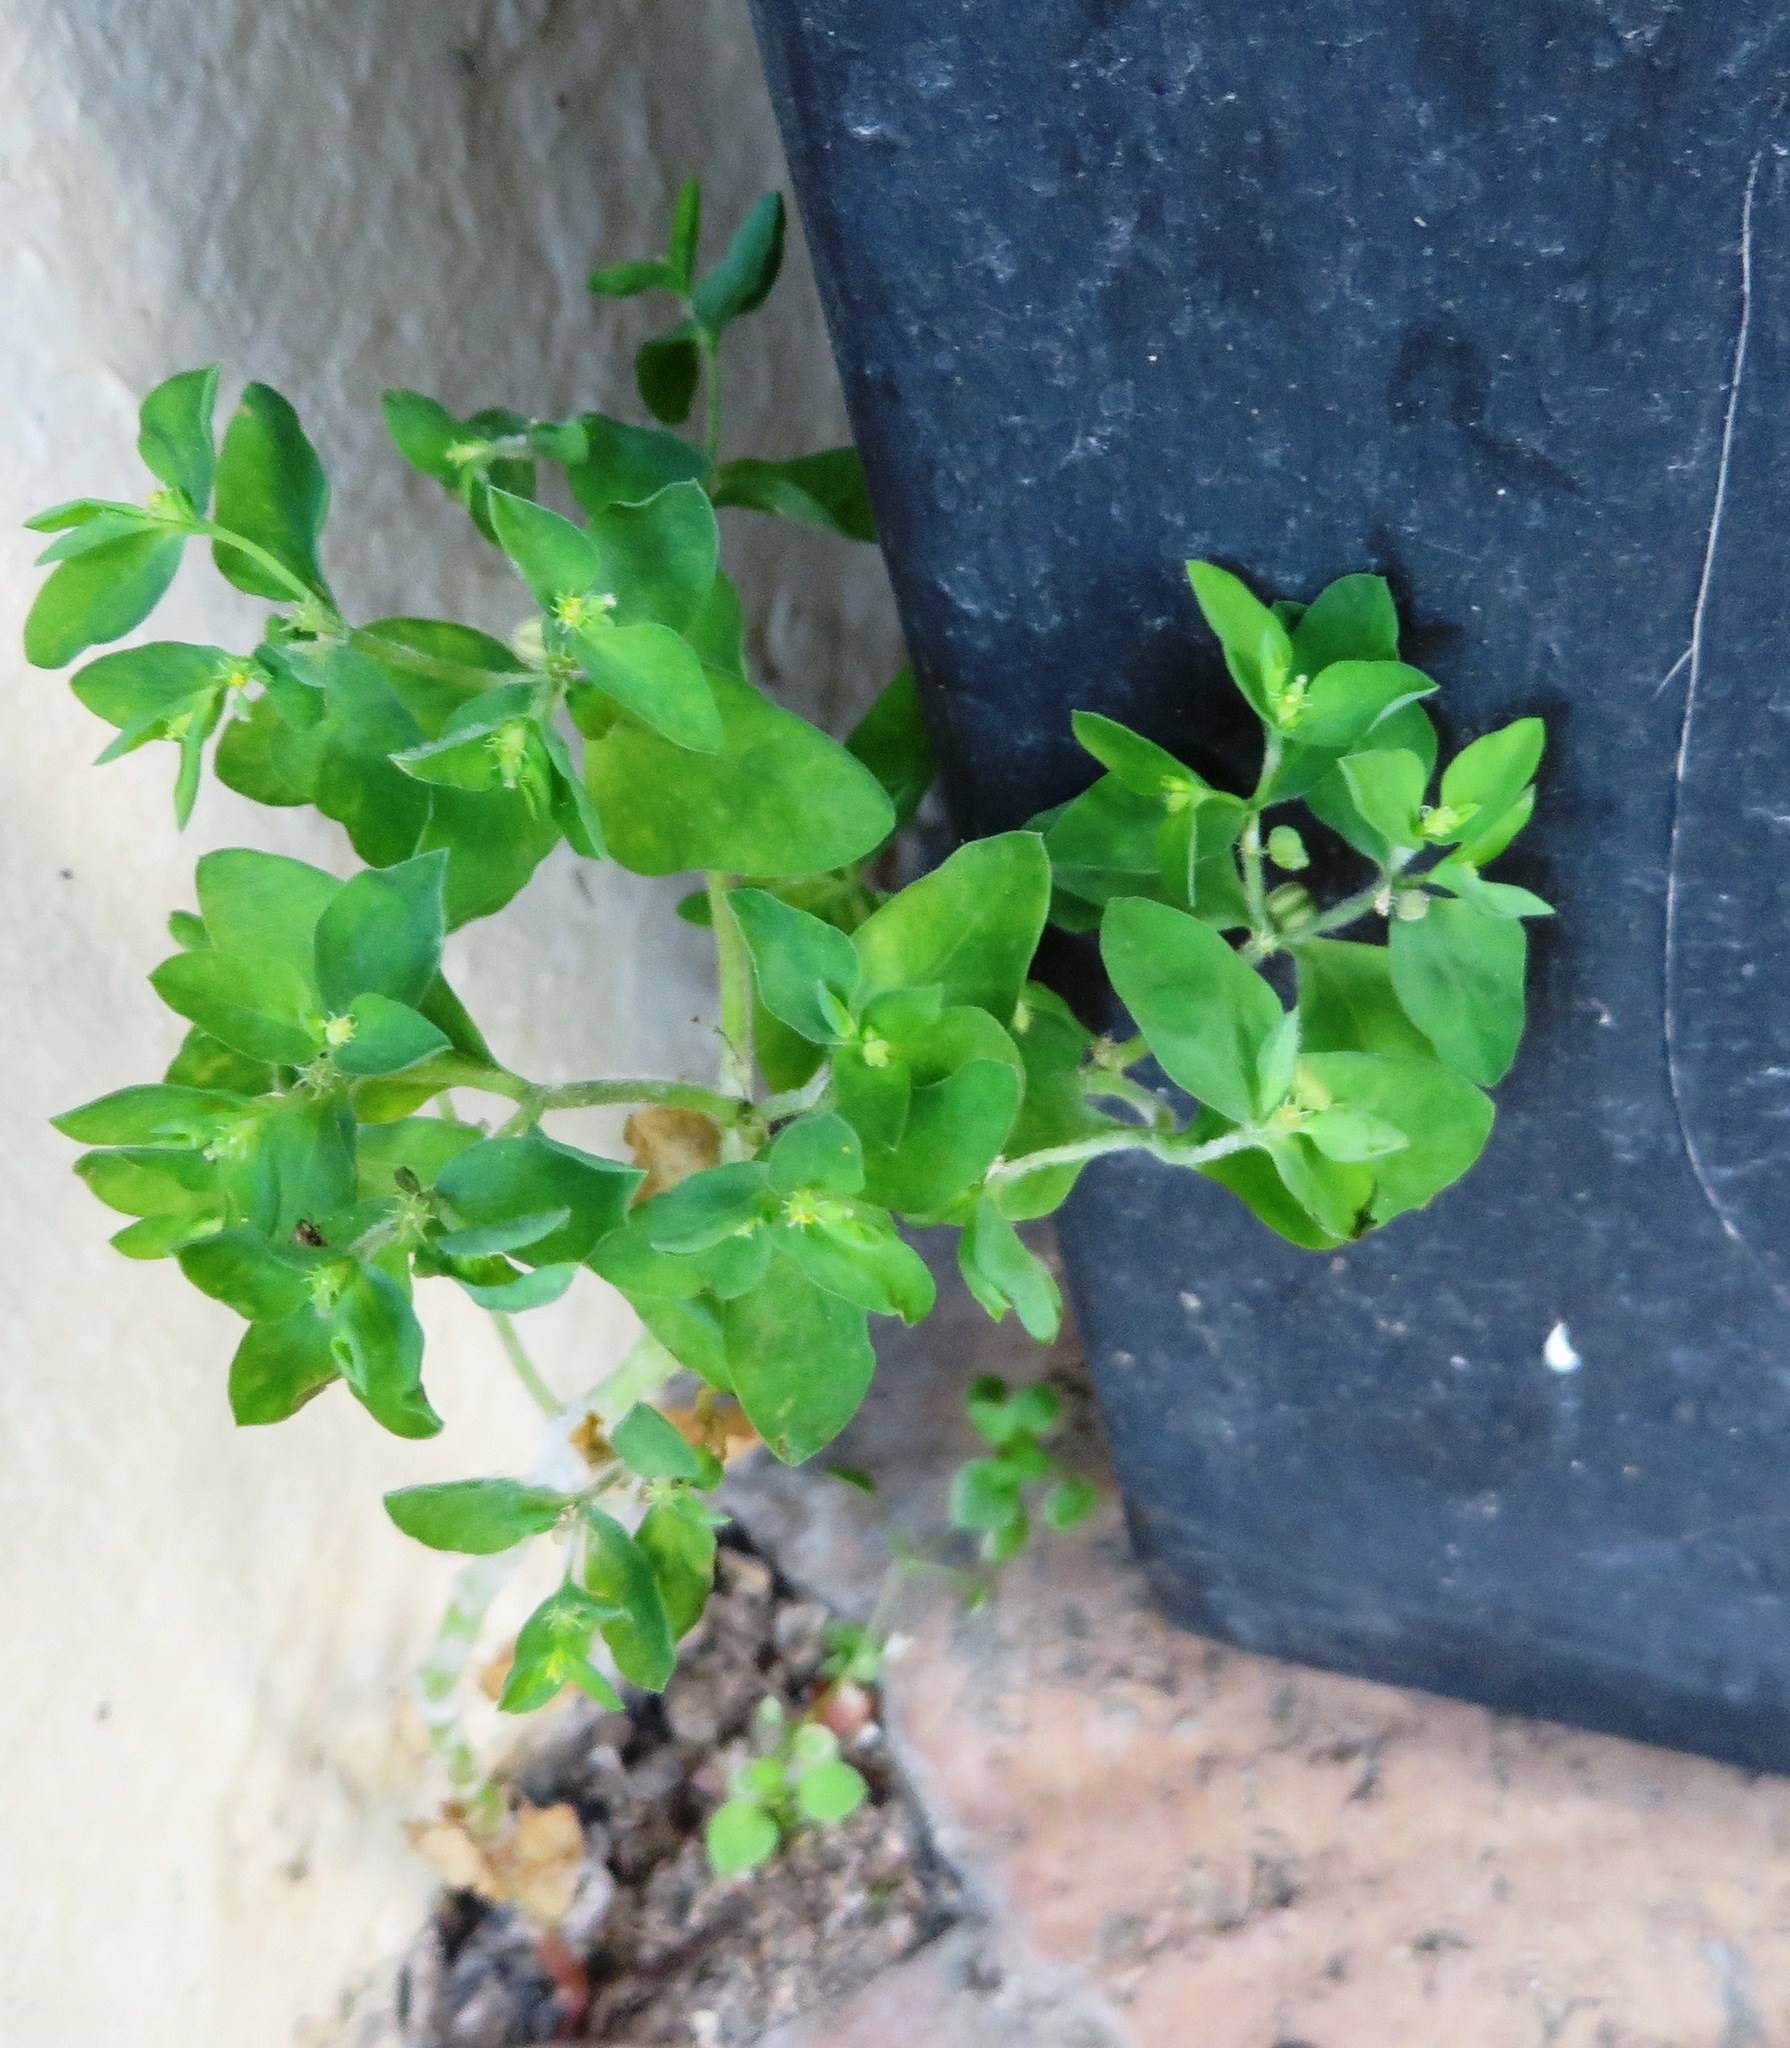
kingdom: Plantae
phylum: Tracheophyta
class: Magnoliopsida
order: Malpighiales
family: Euphorbiaceae
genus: Euphorbia
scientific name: Euphorbia peplus
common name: Petty spurge
